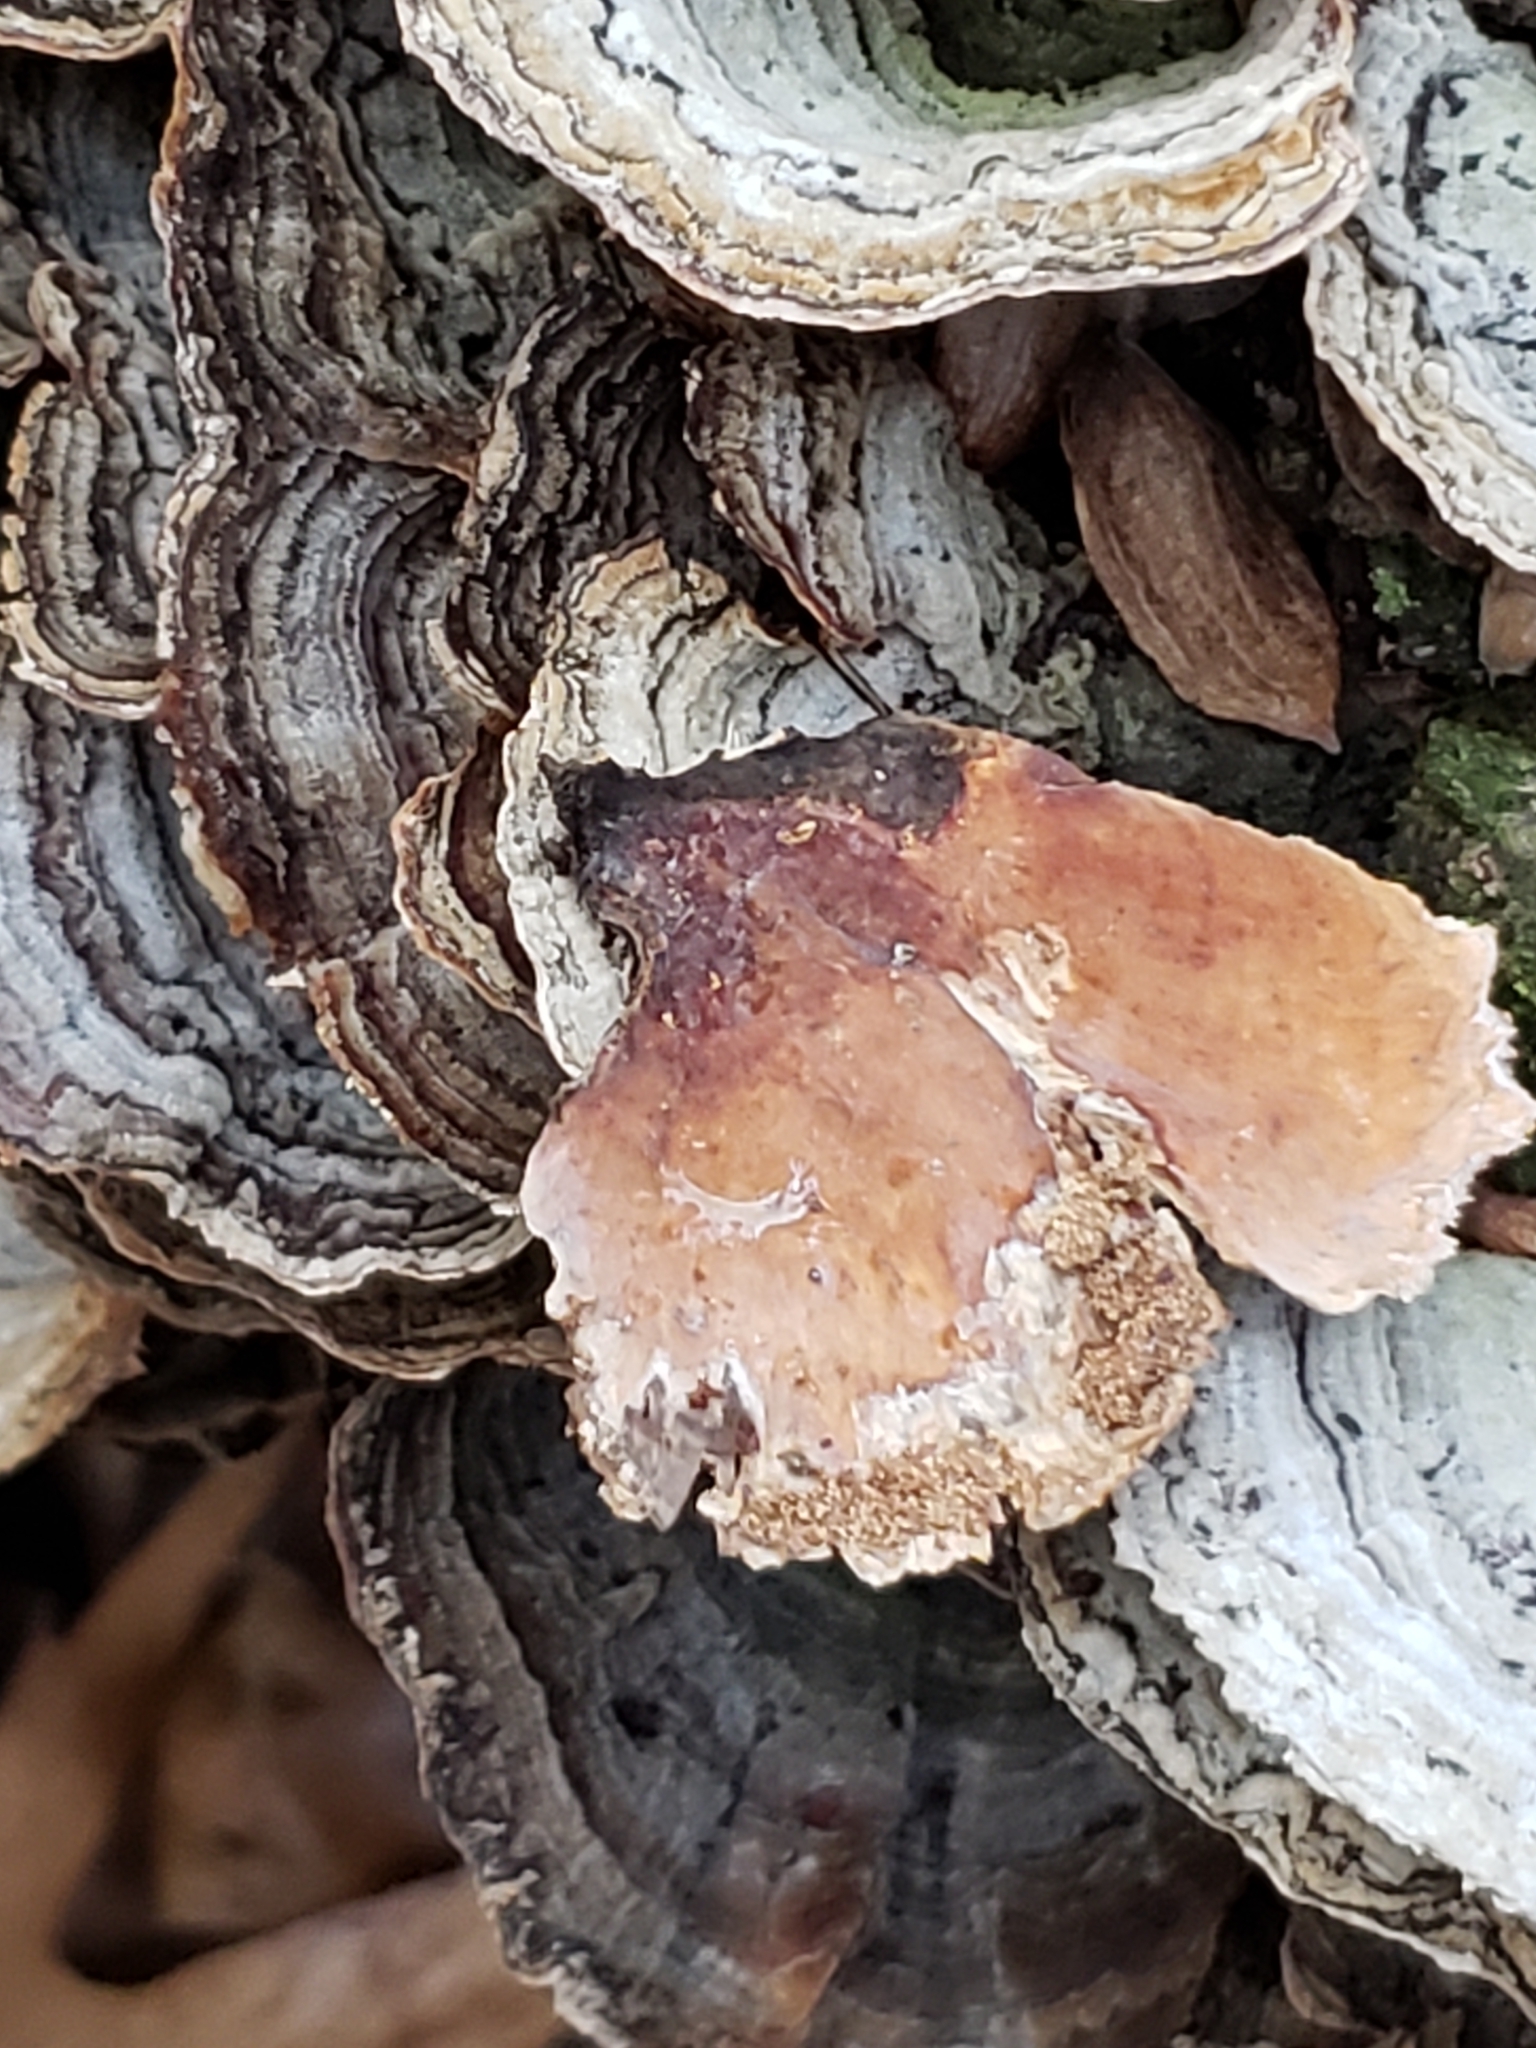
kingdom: Fungi
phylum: Basidiomycota
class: Agaricomycetes
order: Russulales
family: Stereaceae
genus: Stereum
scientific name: Stereum ostrea
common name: False turkeytail
